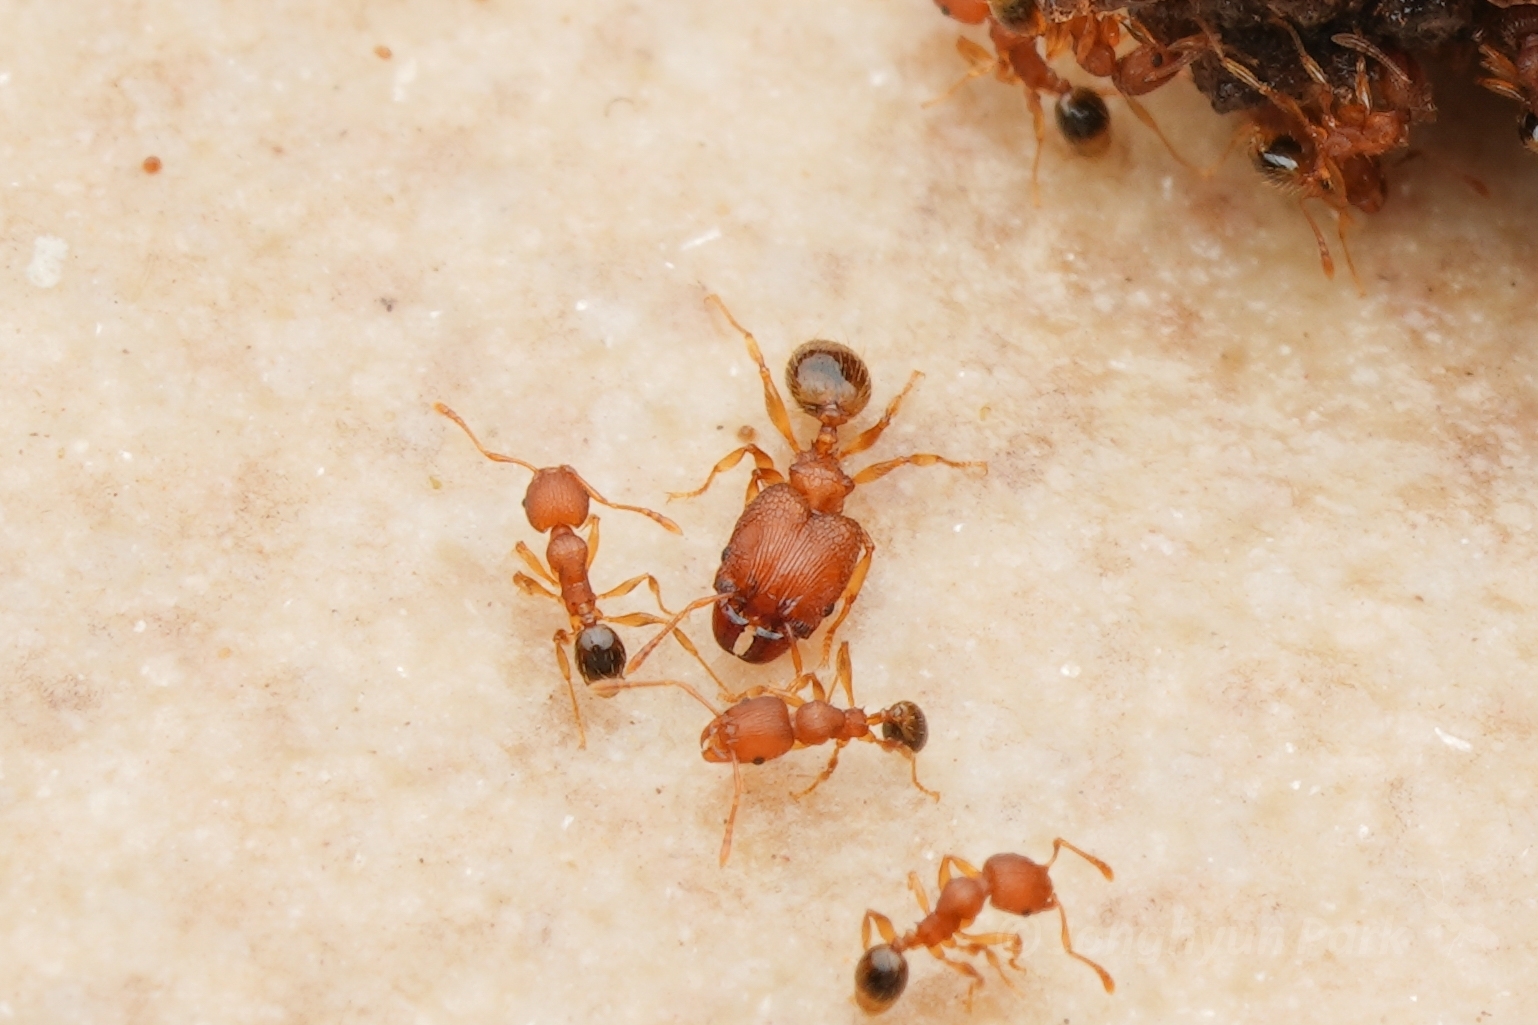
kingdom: Animalia
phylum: Arthropoda
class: Insecta
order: Hymenoptera
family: Formicidae
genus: Pheidole
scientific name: Pheidole parva
